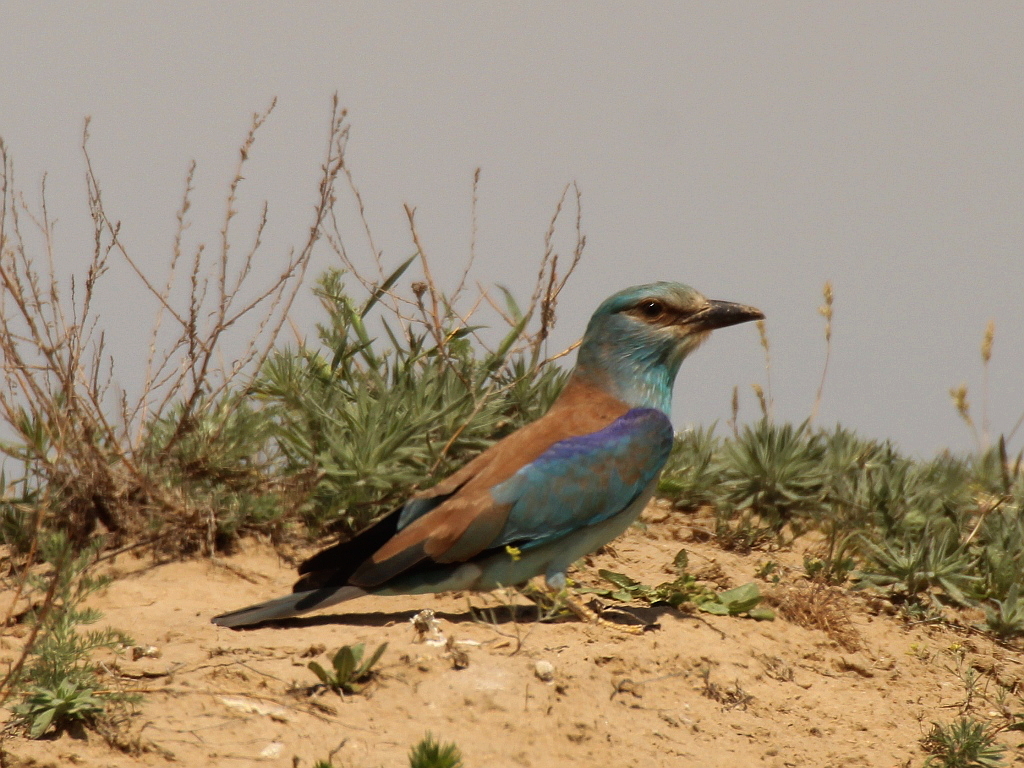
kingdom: Animalia
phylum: Chordata
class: Aves
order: Coraciiformes
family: Coraciidae
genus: Coracias
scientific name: Coracias garrulus
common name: European roller
